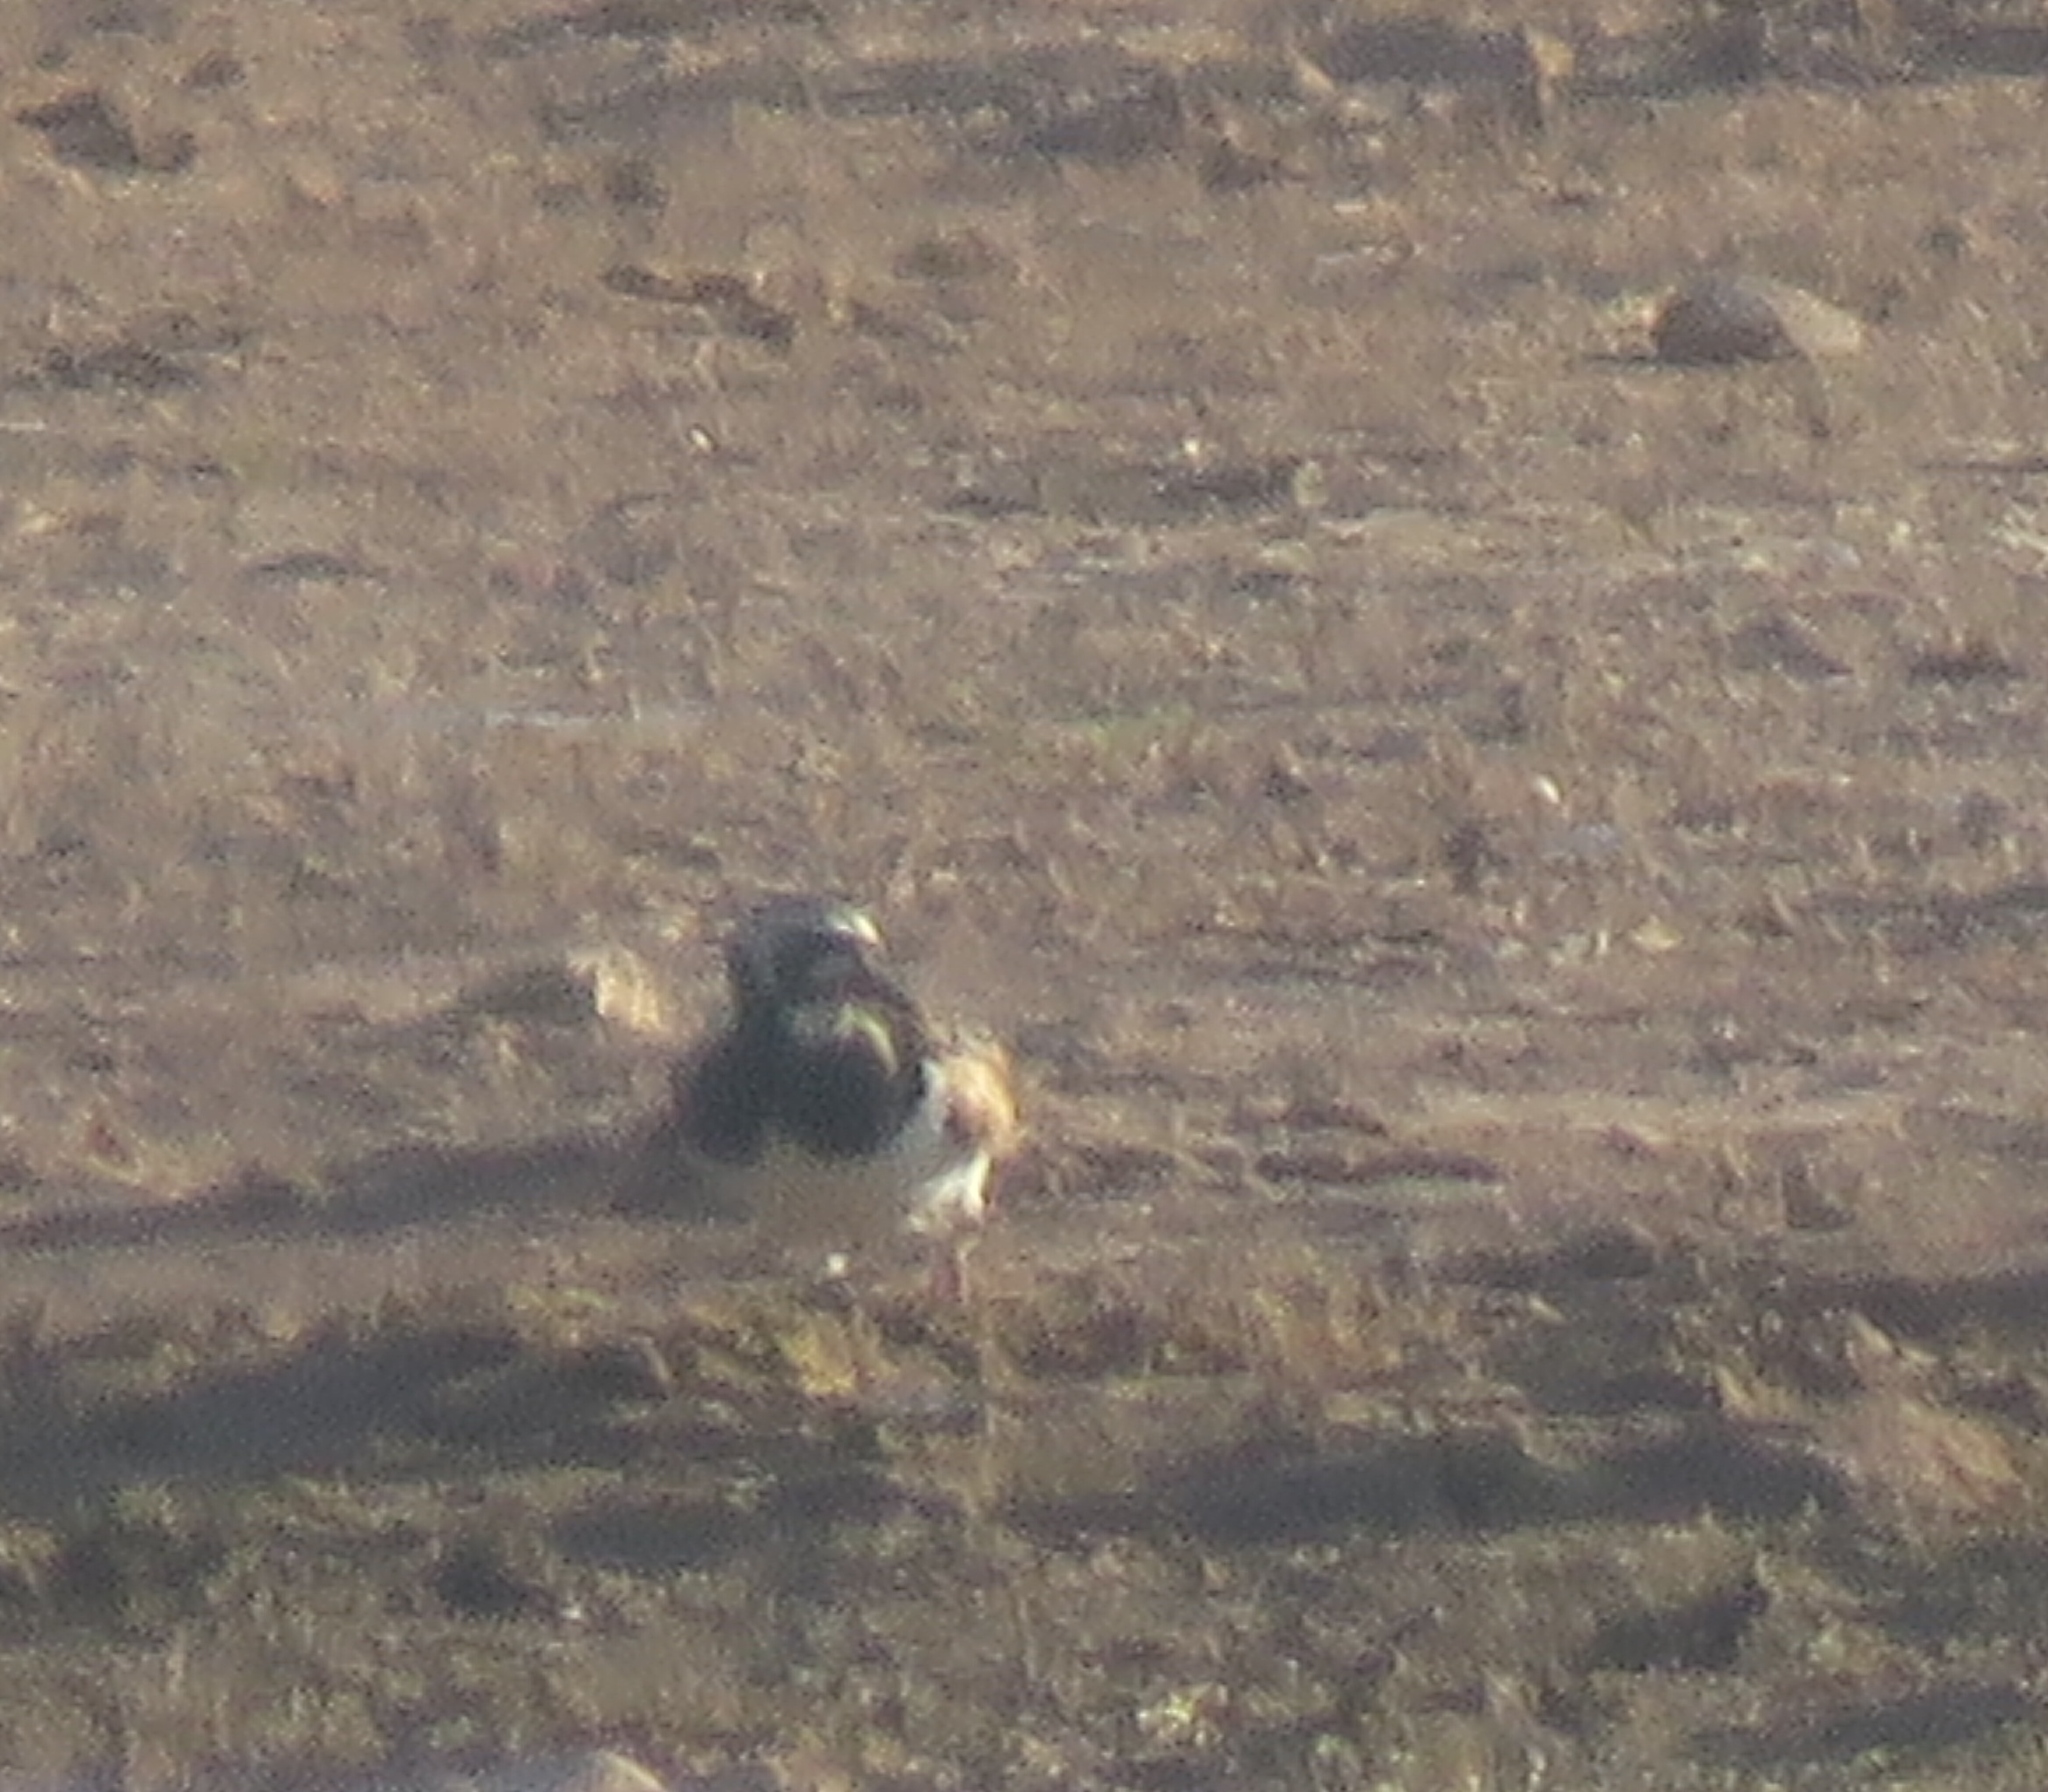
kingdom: Animalia
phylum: Chordata
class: Aves
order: Charadriiformes
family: Scolopacidae
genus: Arenaria
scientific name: Arenaria interpres
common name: Ruddy turnstone
